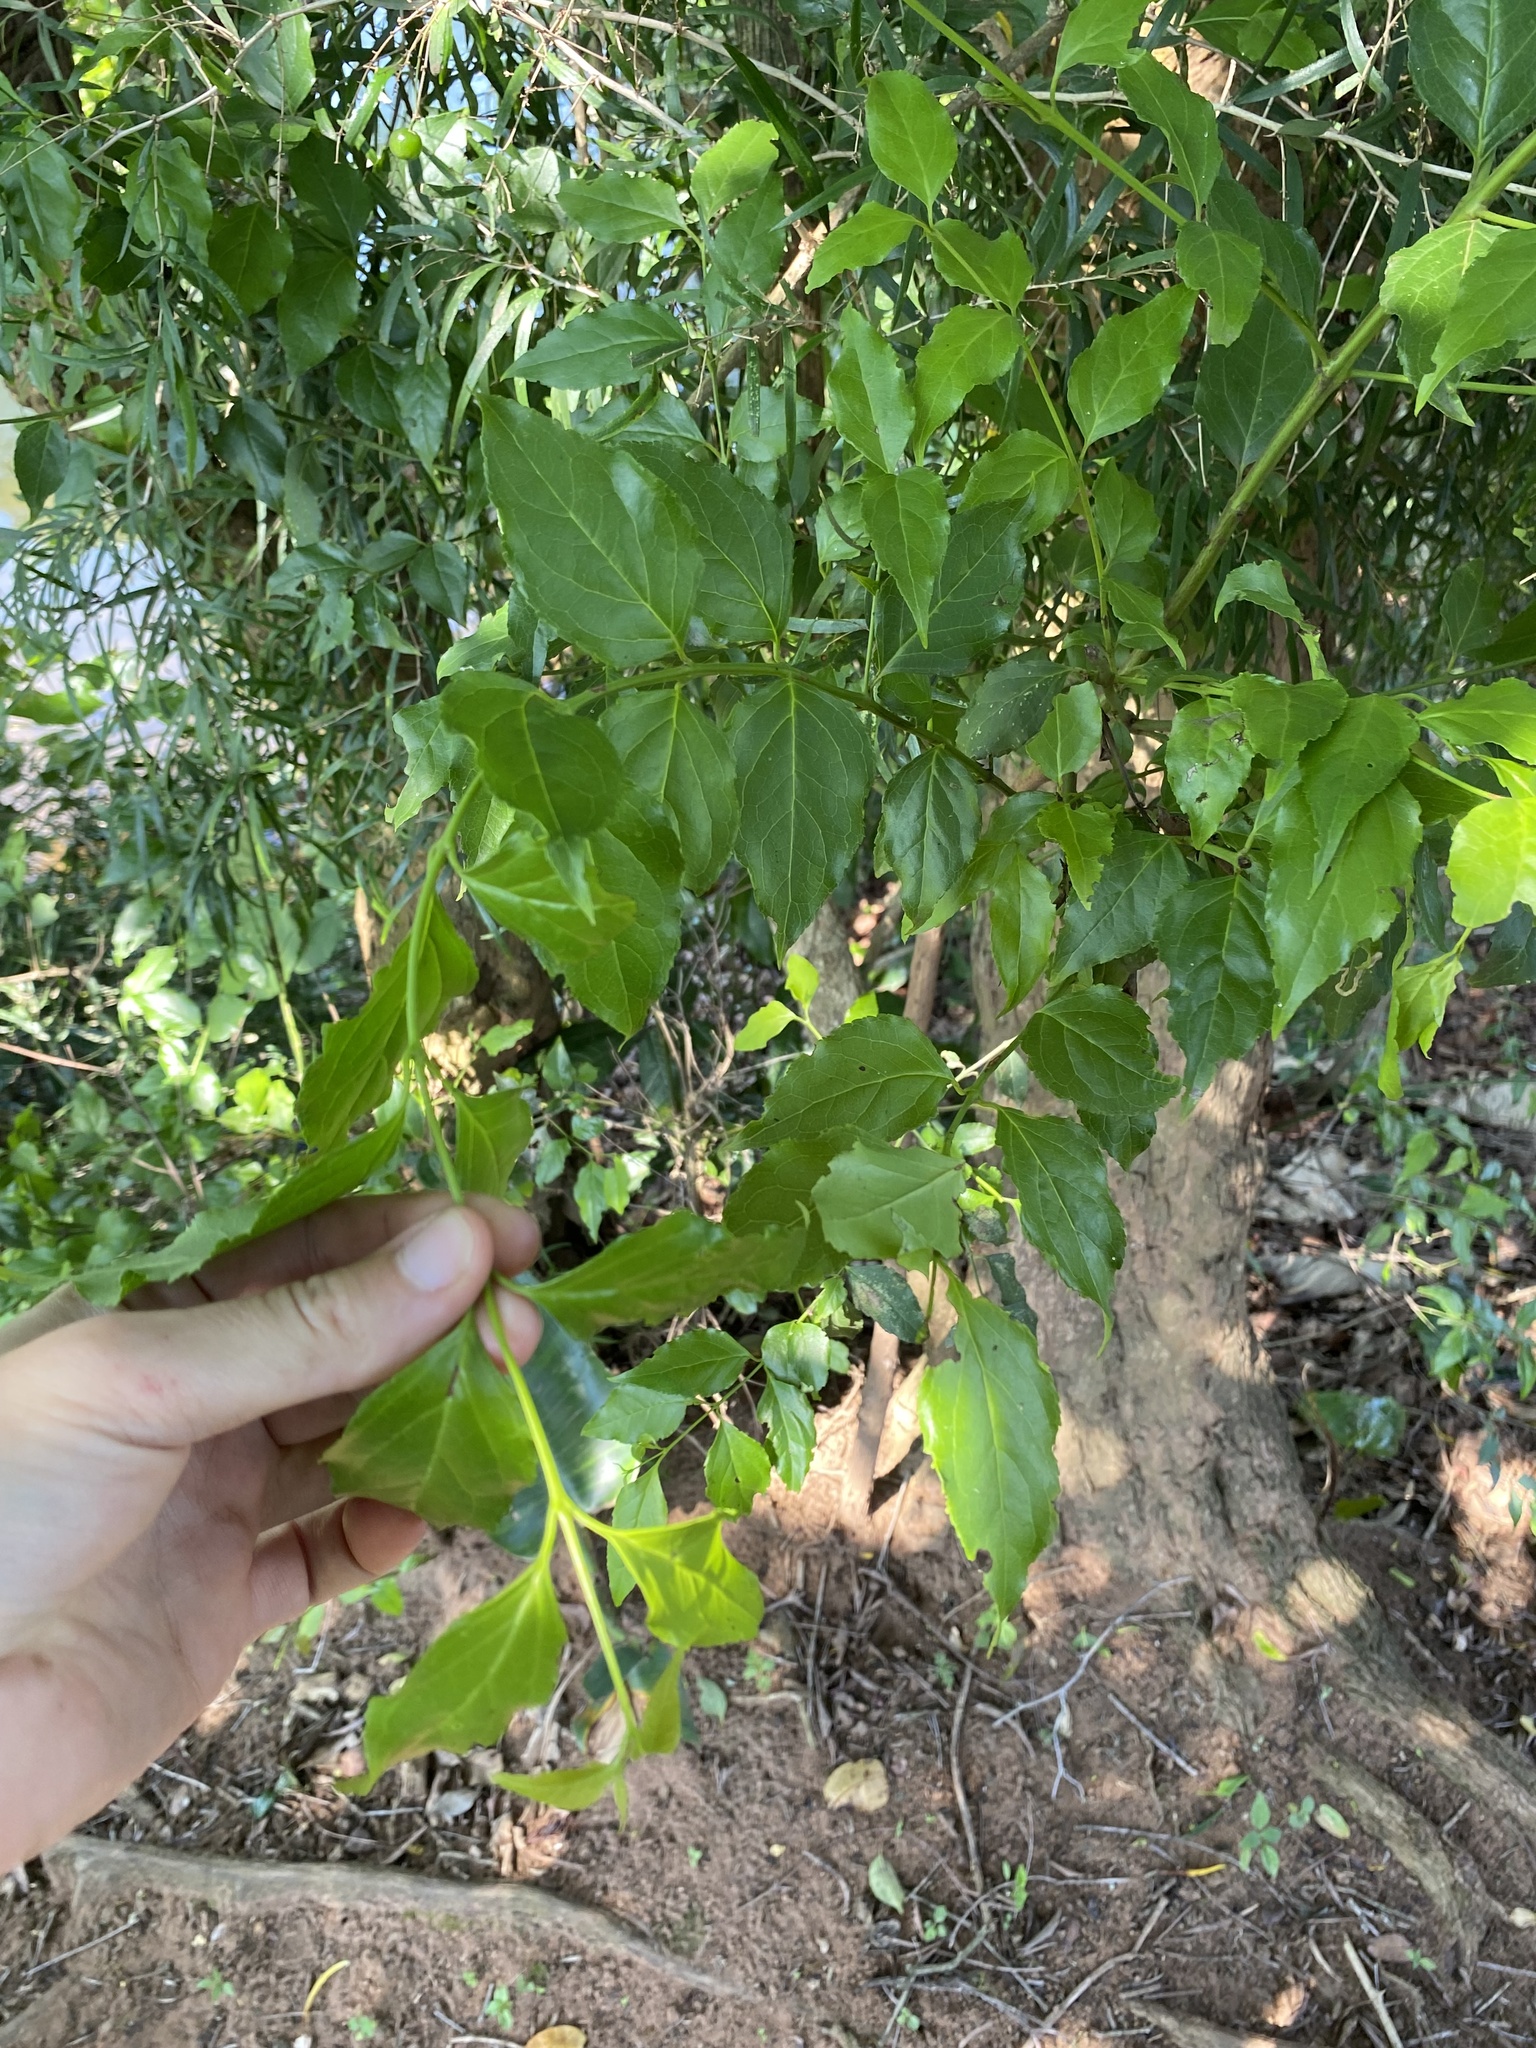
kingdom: Plantae
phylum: Tracheophyta
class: Magnoliopsida
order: Lamiales
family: Stilbaceae
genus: Halleria
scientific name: Halleria lucida
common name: Tree fuschia
